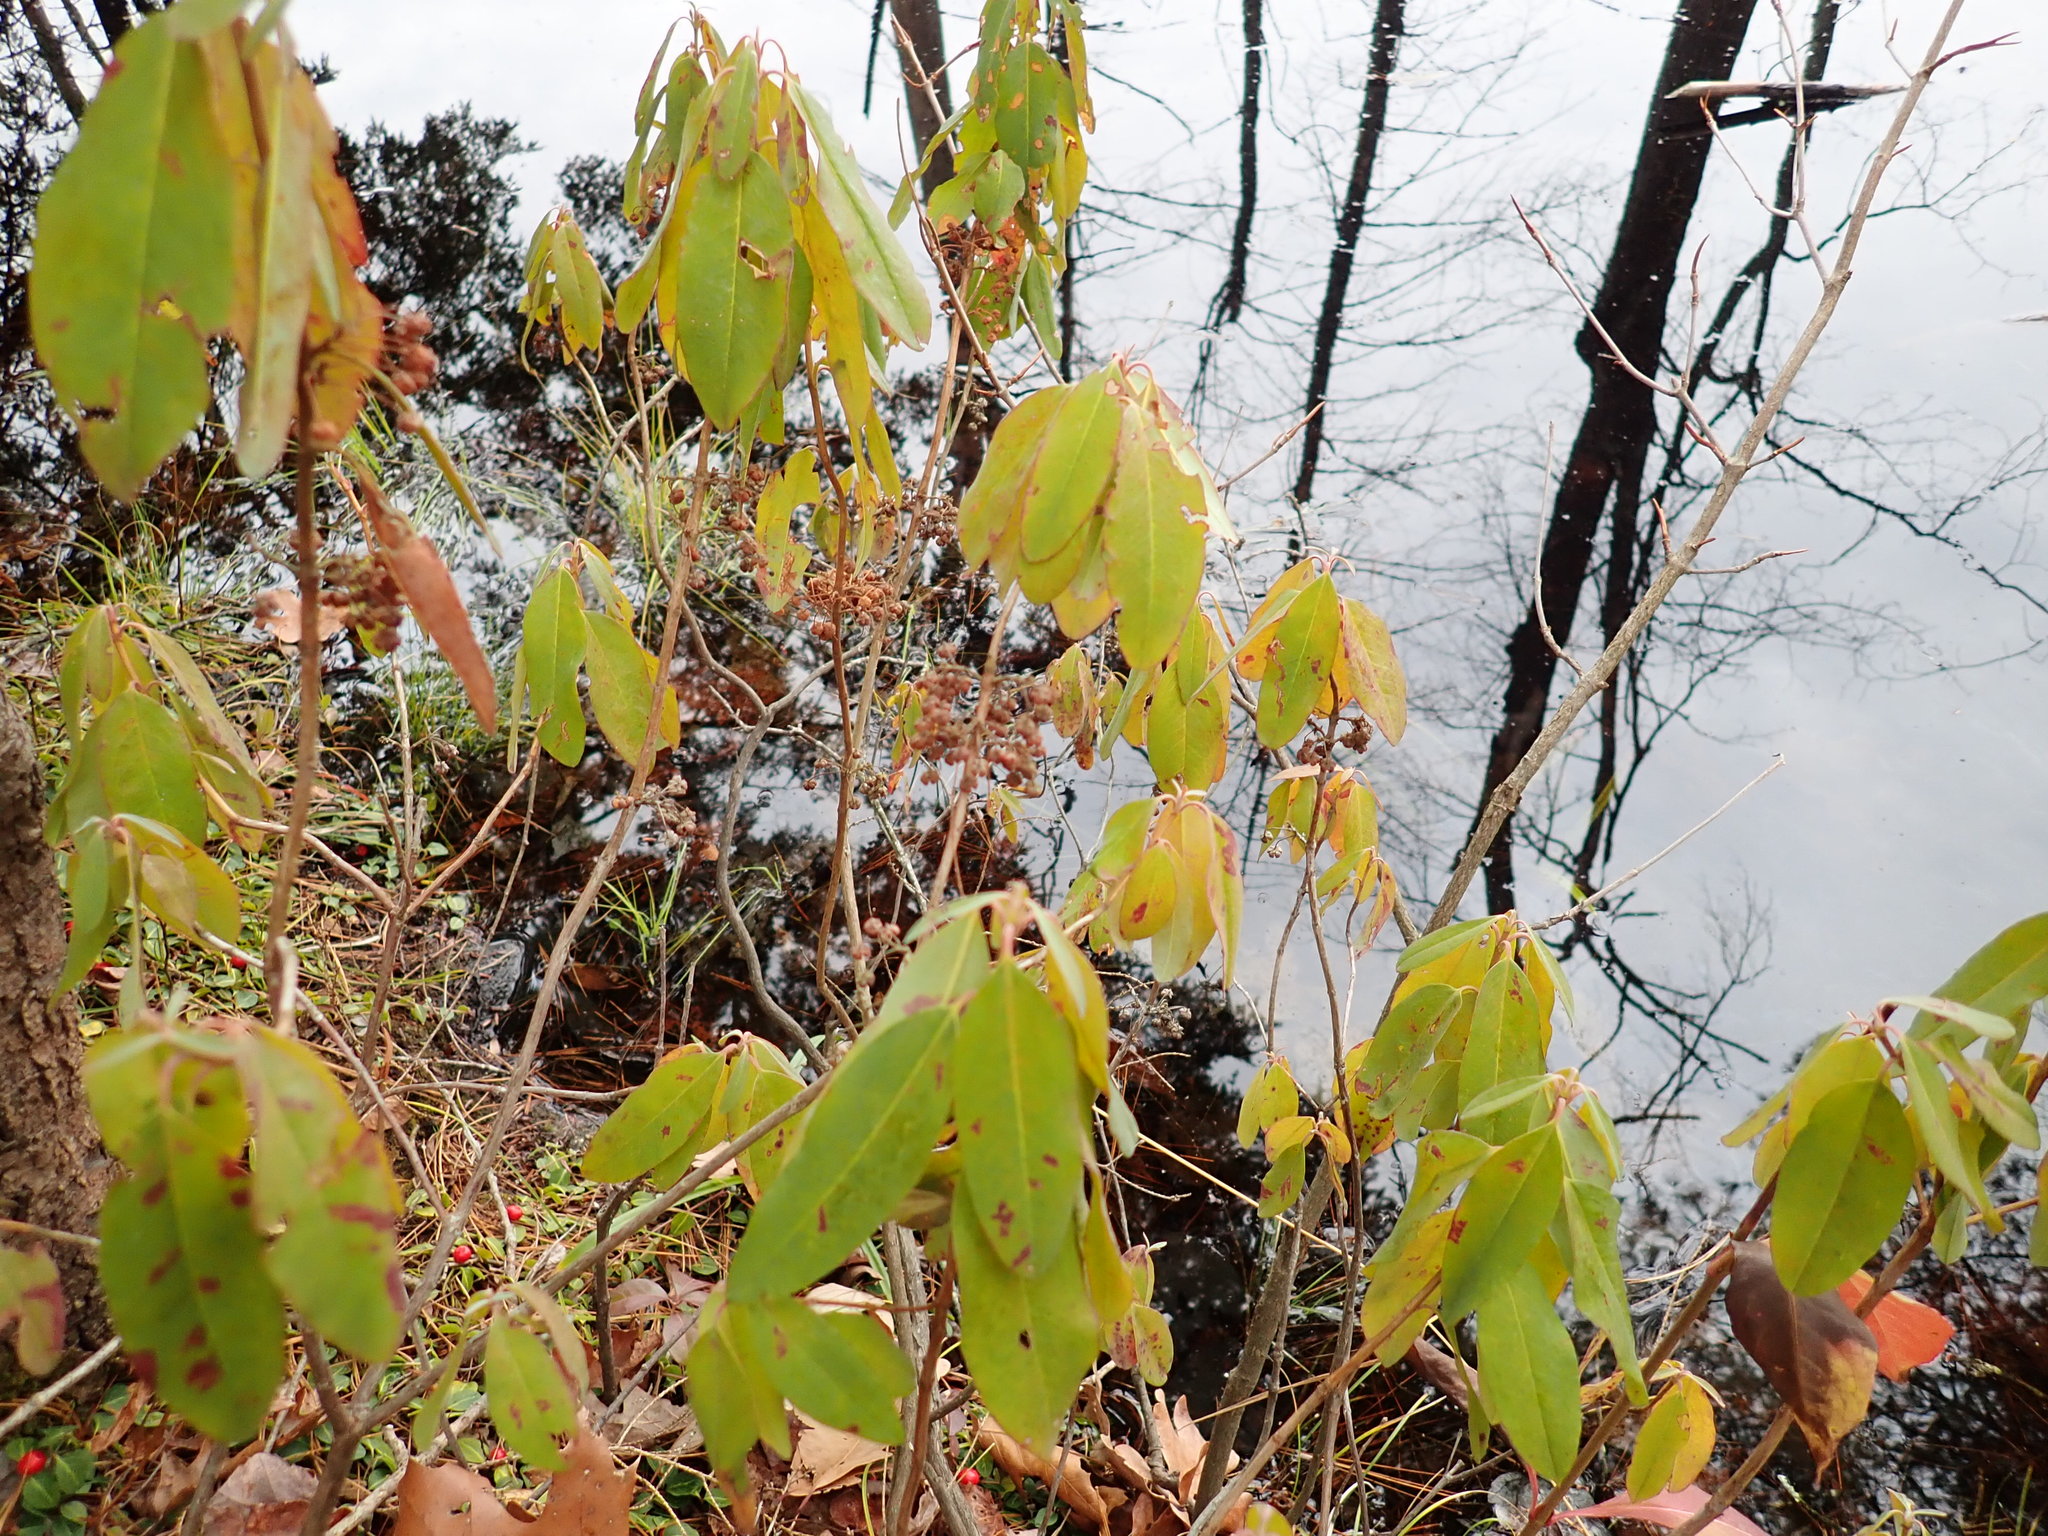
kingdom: Plantae
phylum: Tracheophyta
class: Magnoliopsida
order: Ericales
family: Ericaceae
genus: Kalmia
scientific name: Kalmia angustifolia
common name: Sheep-laurel
